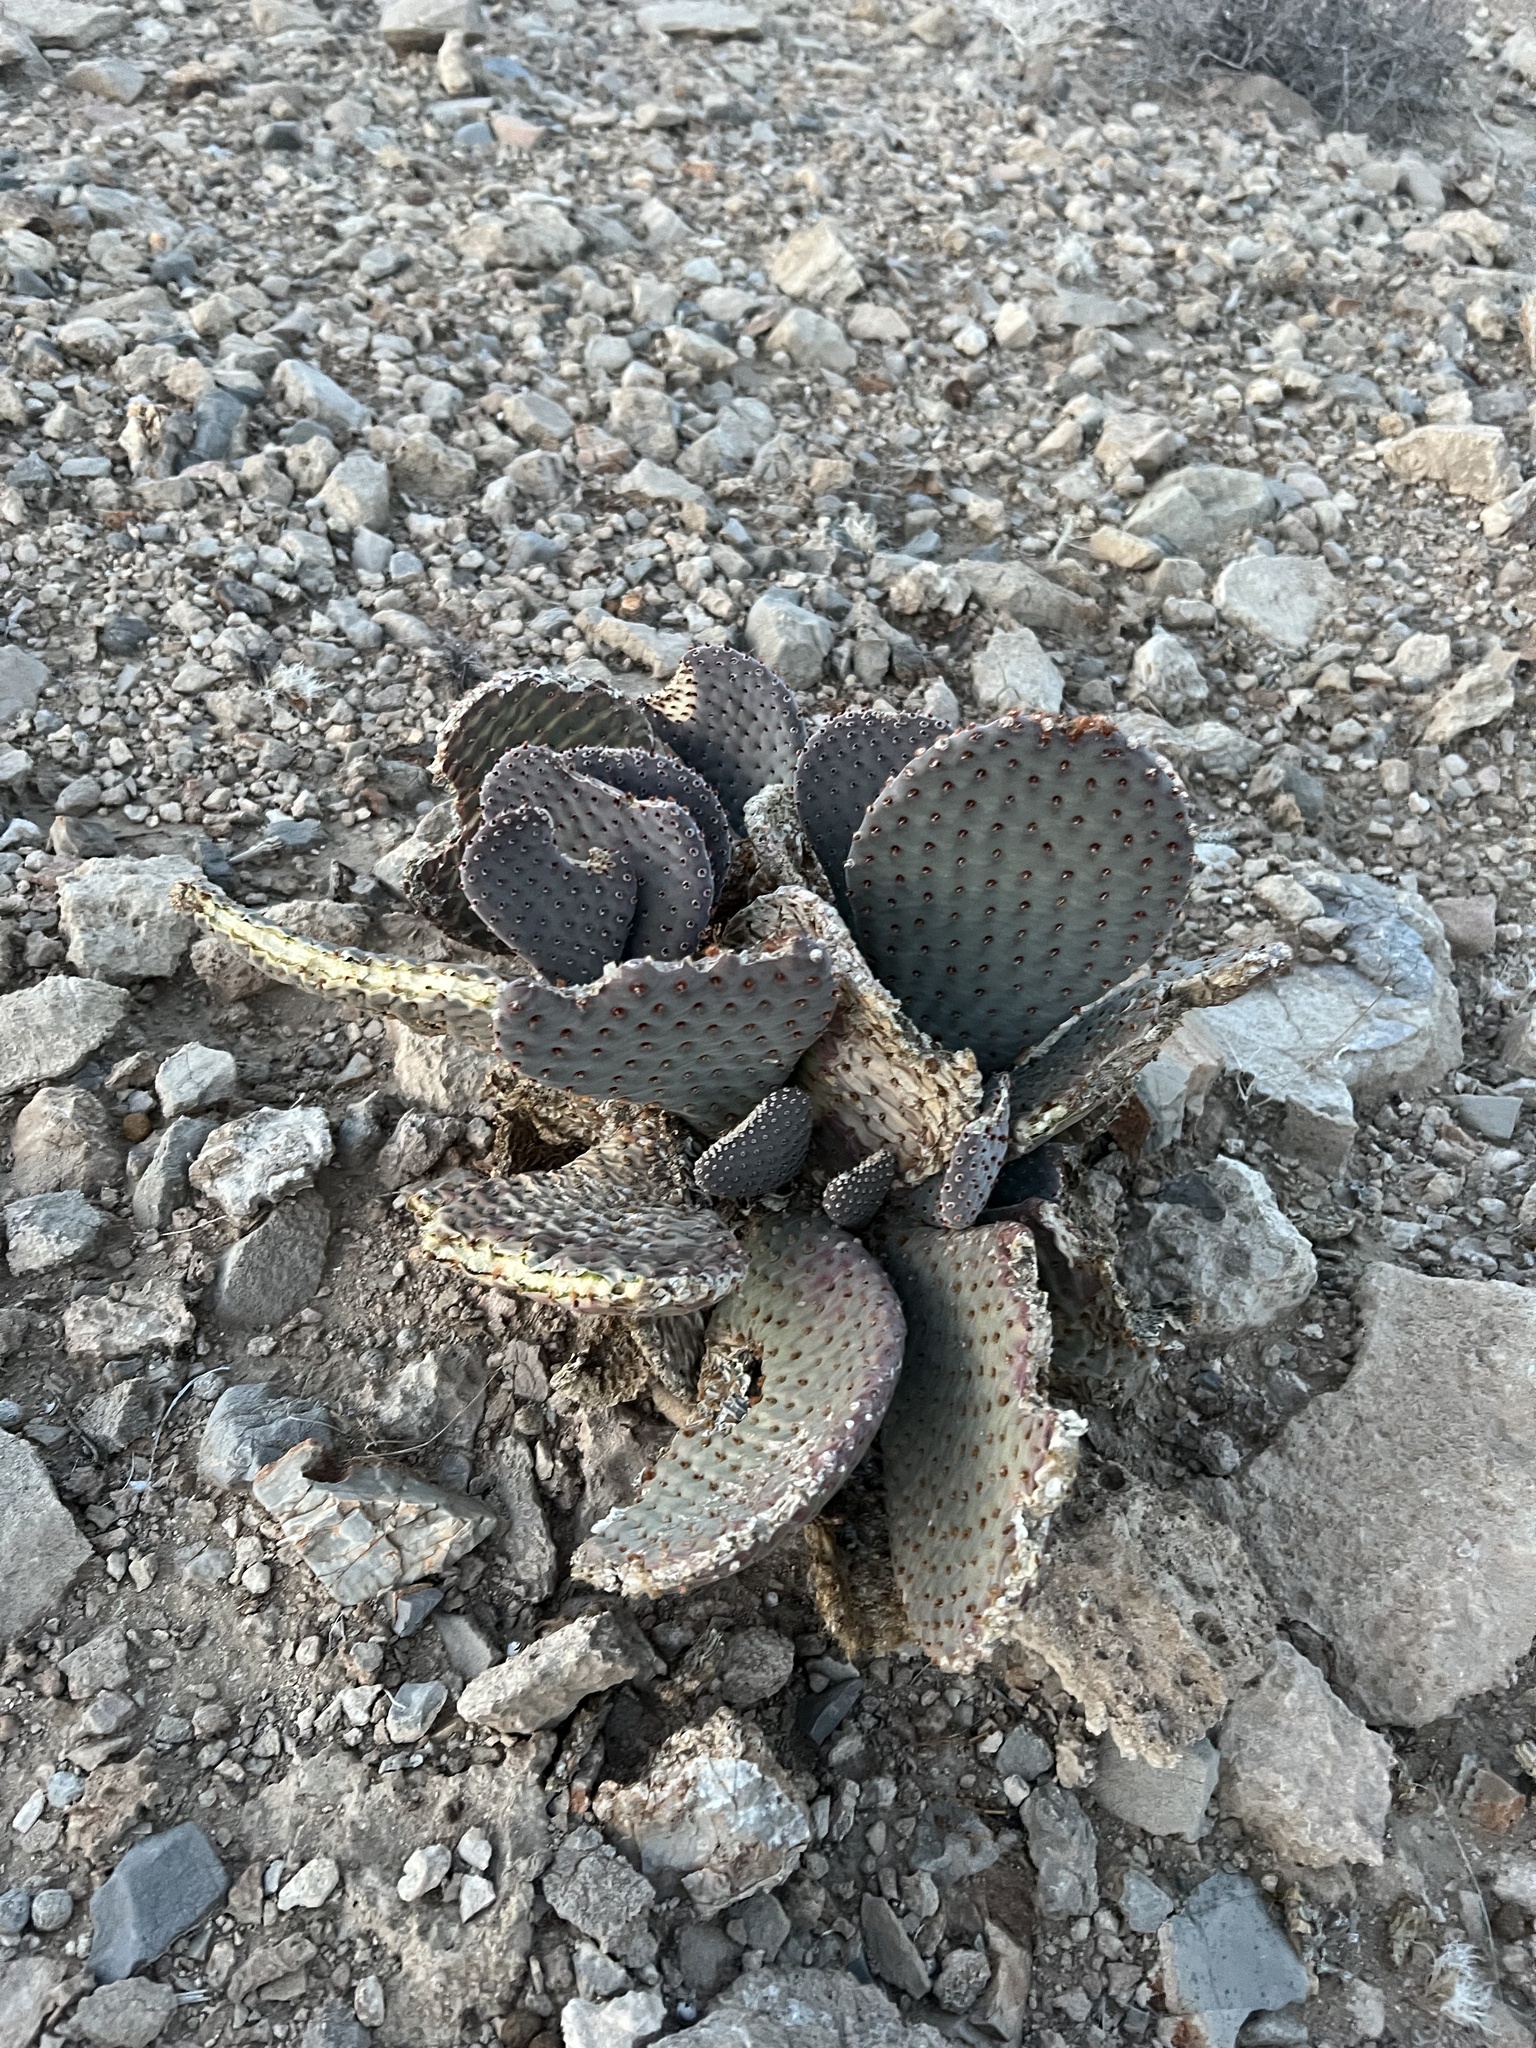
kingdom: Plantae
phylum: Tracheophyta
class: Magnoliopsida
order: Caryophyllales
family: Cactaceae
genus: Opuntia
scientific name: Opuntia basilaris
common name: Beavertail prickly-pear
